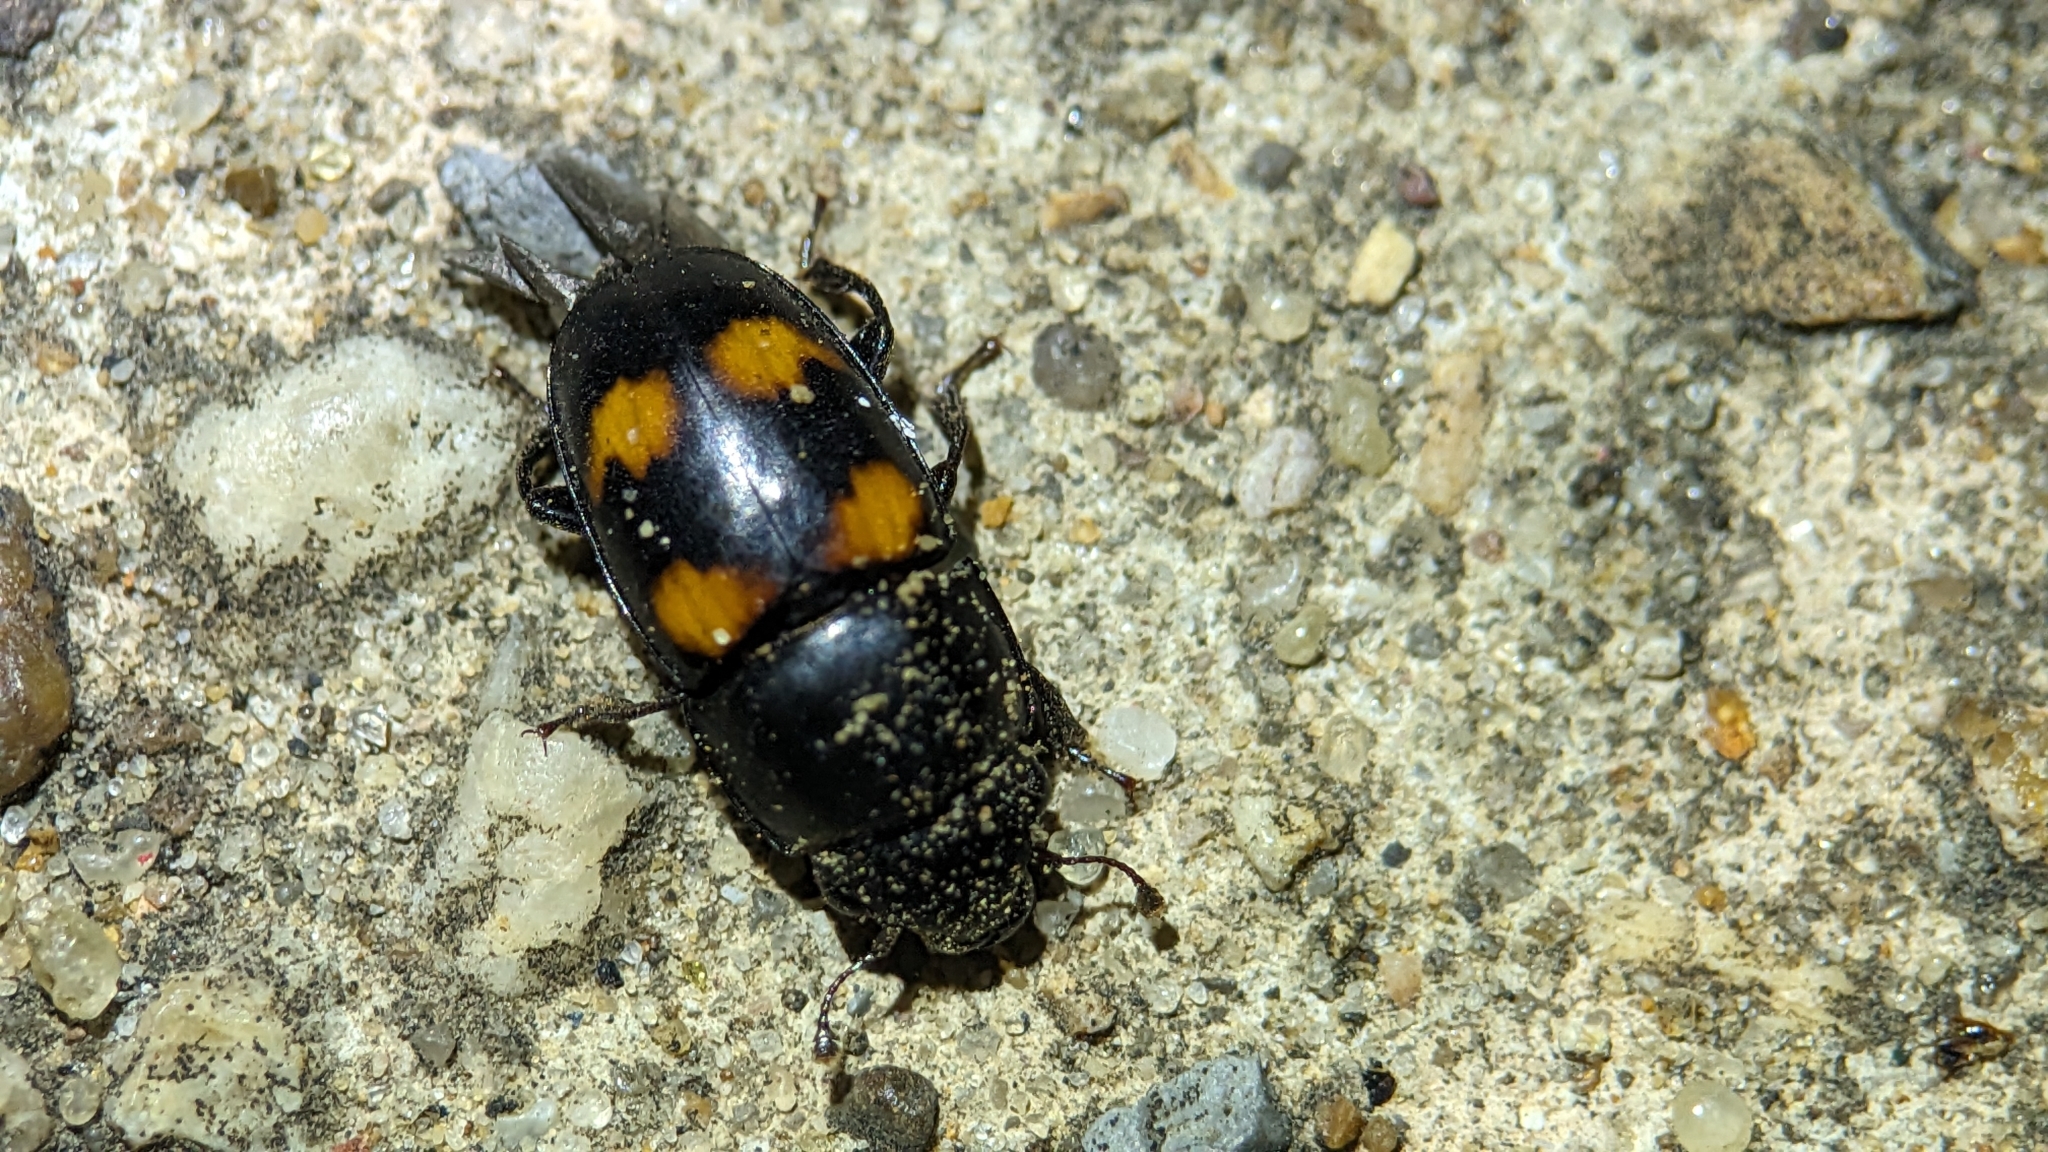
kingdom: Animalia
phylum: Arthropoda
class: Insecta
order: Coleoptera
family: Nitidulidae
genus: Glischrochilus
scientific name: Glischrochilus obtusus
